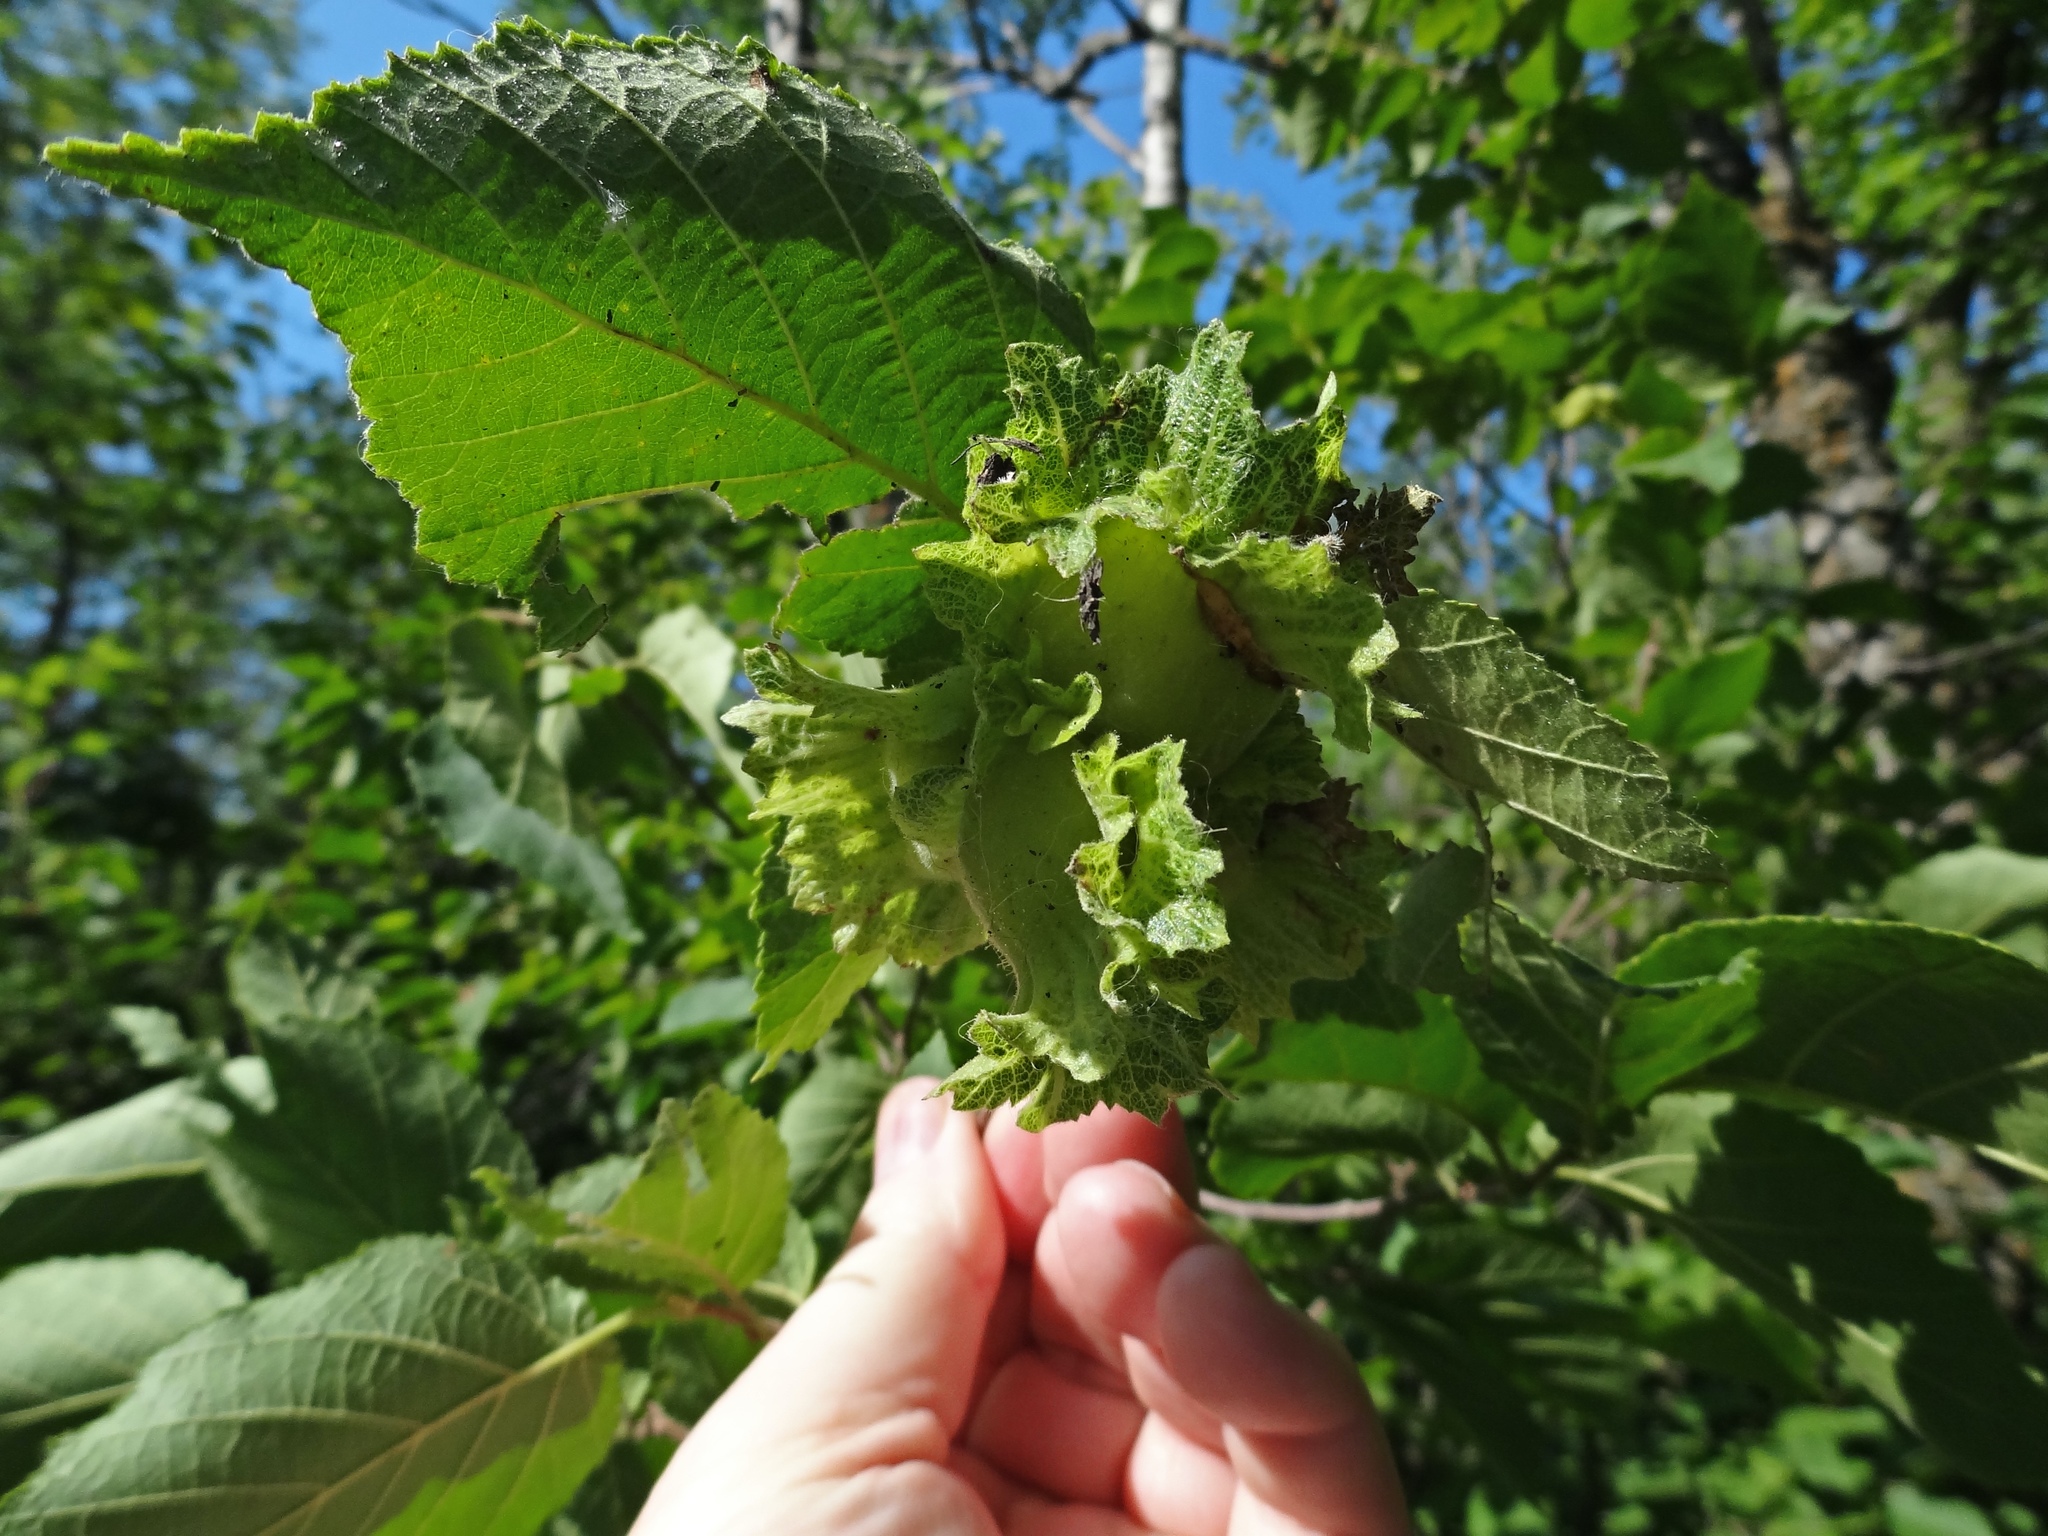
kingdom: Plantae
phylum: Tracheophyta
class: Magnoliopsida
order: Fagales
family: Betulaceae
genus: Corylus
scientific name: Corylus americana
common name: American hazel
